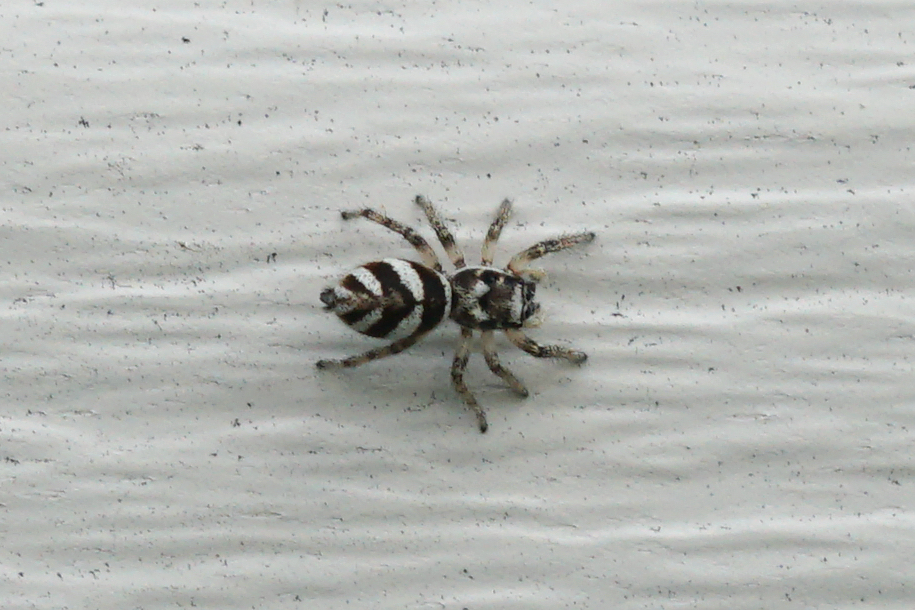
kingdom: Animalia
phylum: Arthropoda
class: Arachnida
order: Araneae
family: Salticidae
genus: Salticus
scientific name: Salticus scenicus
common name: Zebra jumper
